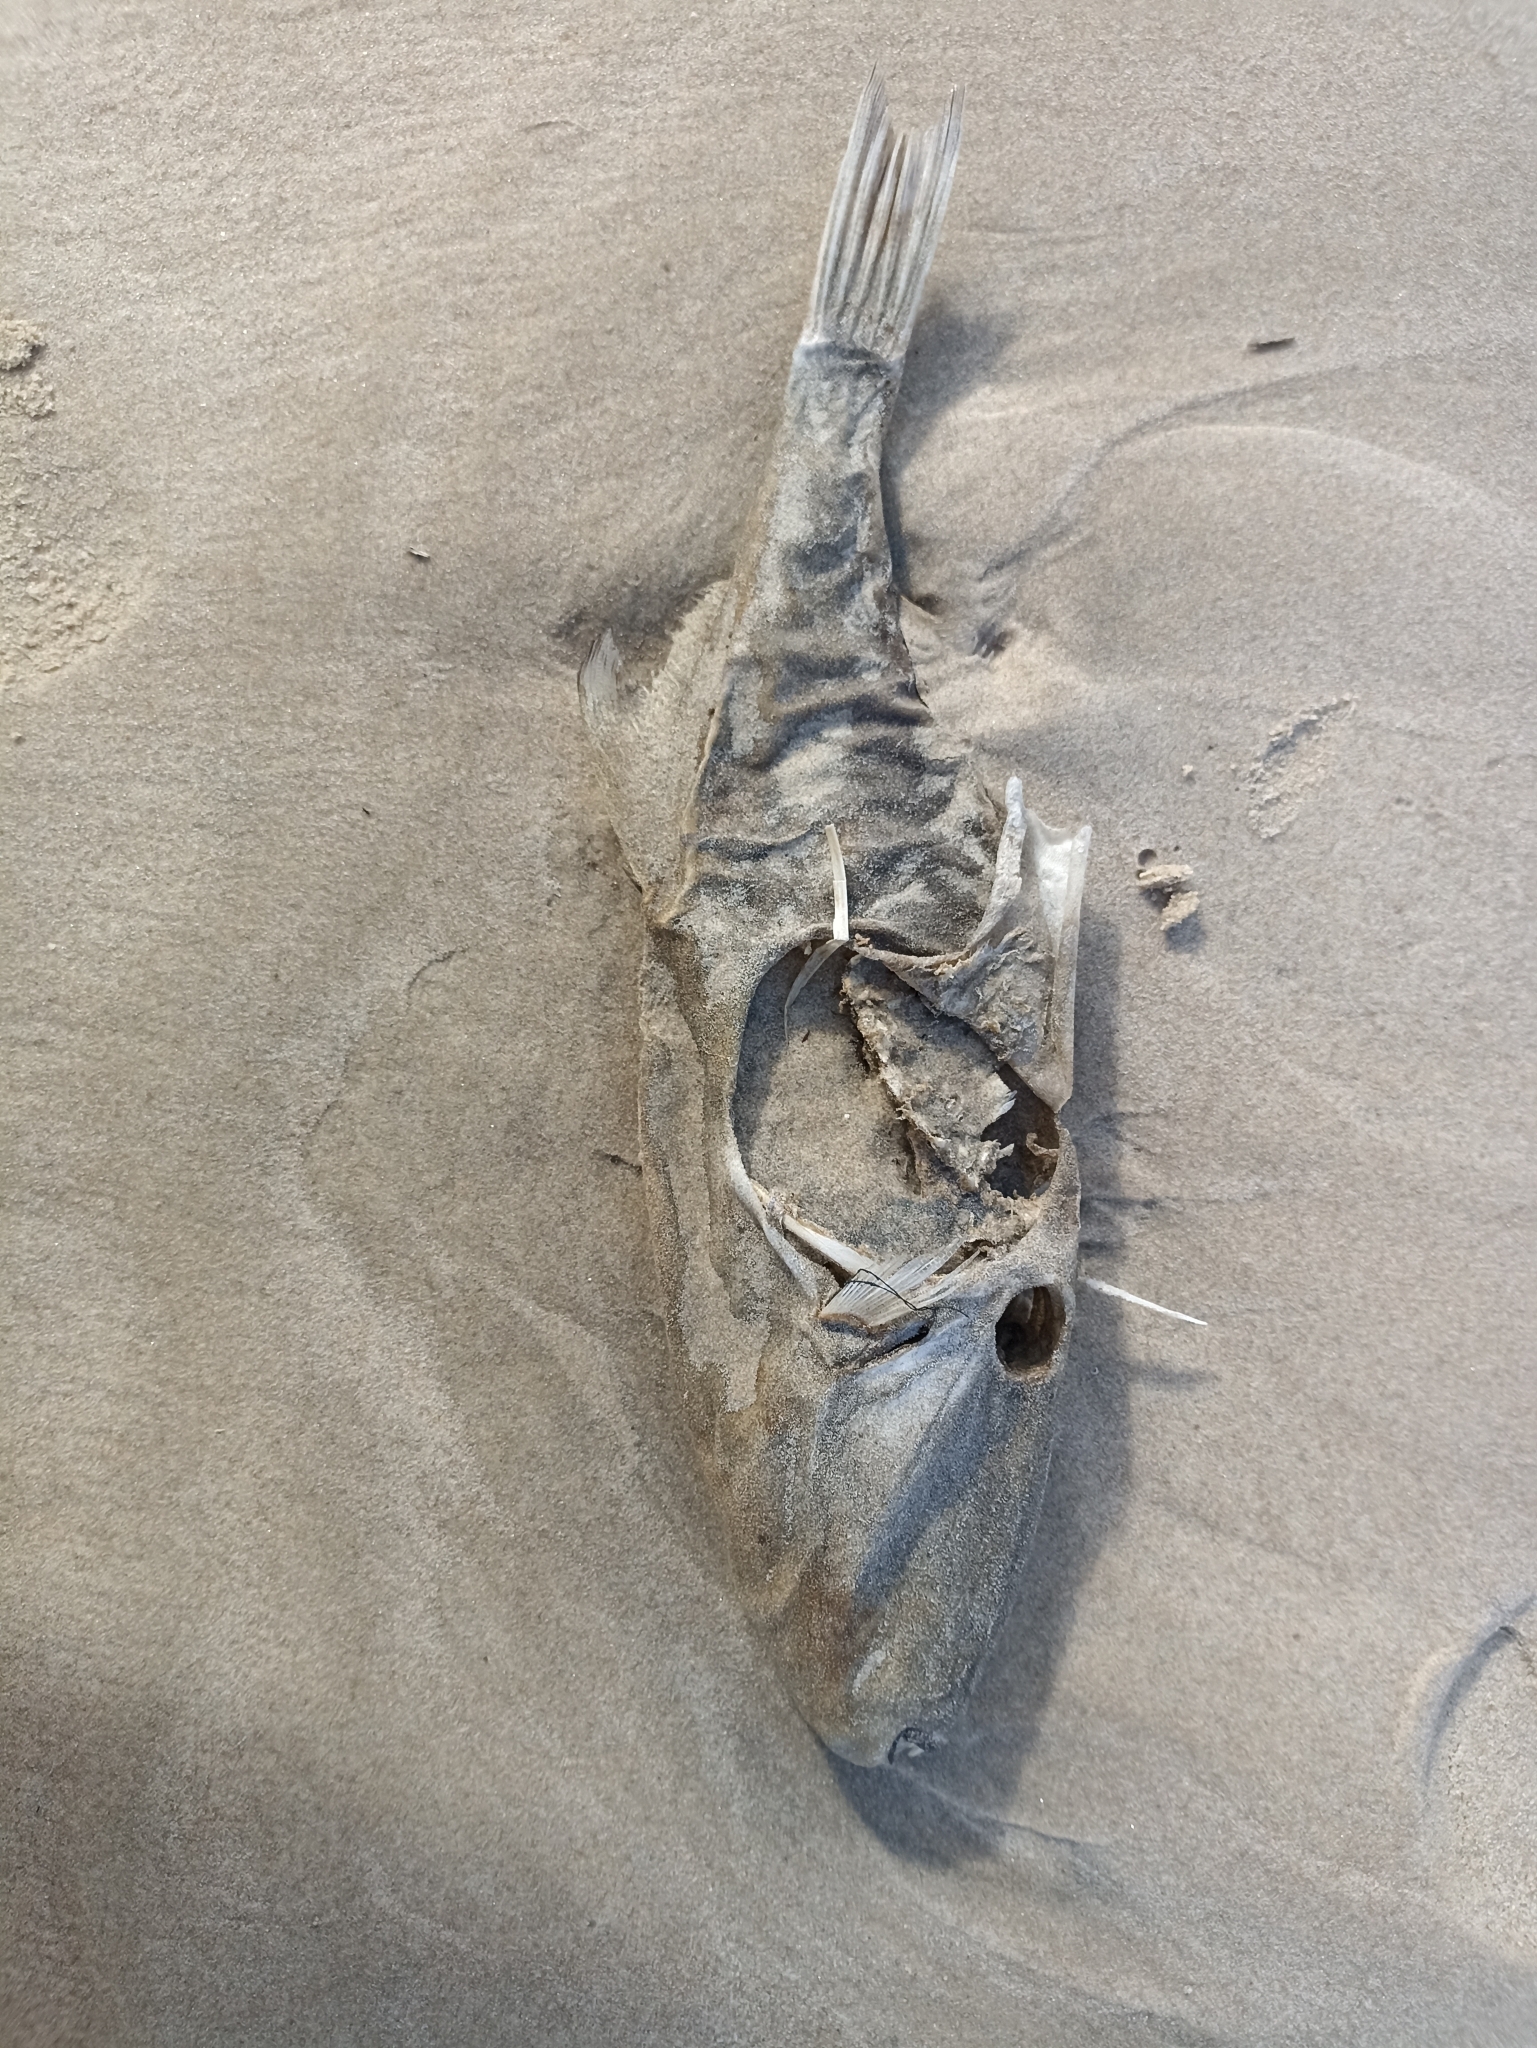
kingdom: Animalia
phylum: Chordata
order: Tetraodontiformes
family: Monacanthidae
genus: Nelusetta
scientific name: Nelusetta ayraud
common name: Chinaman leatherjacket
